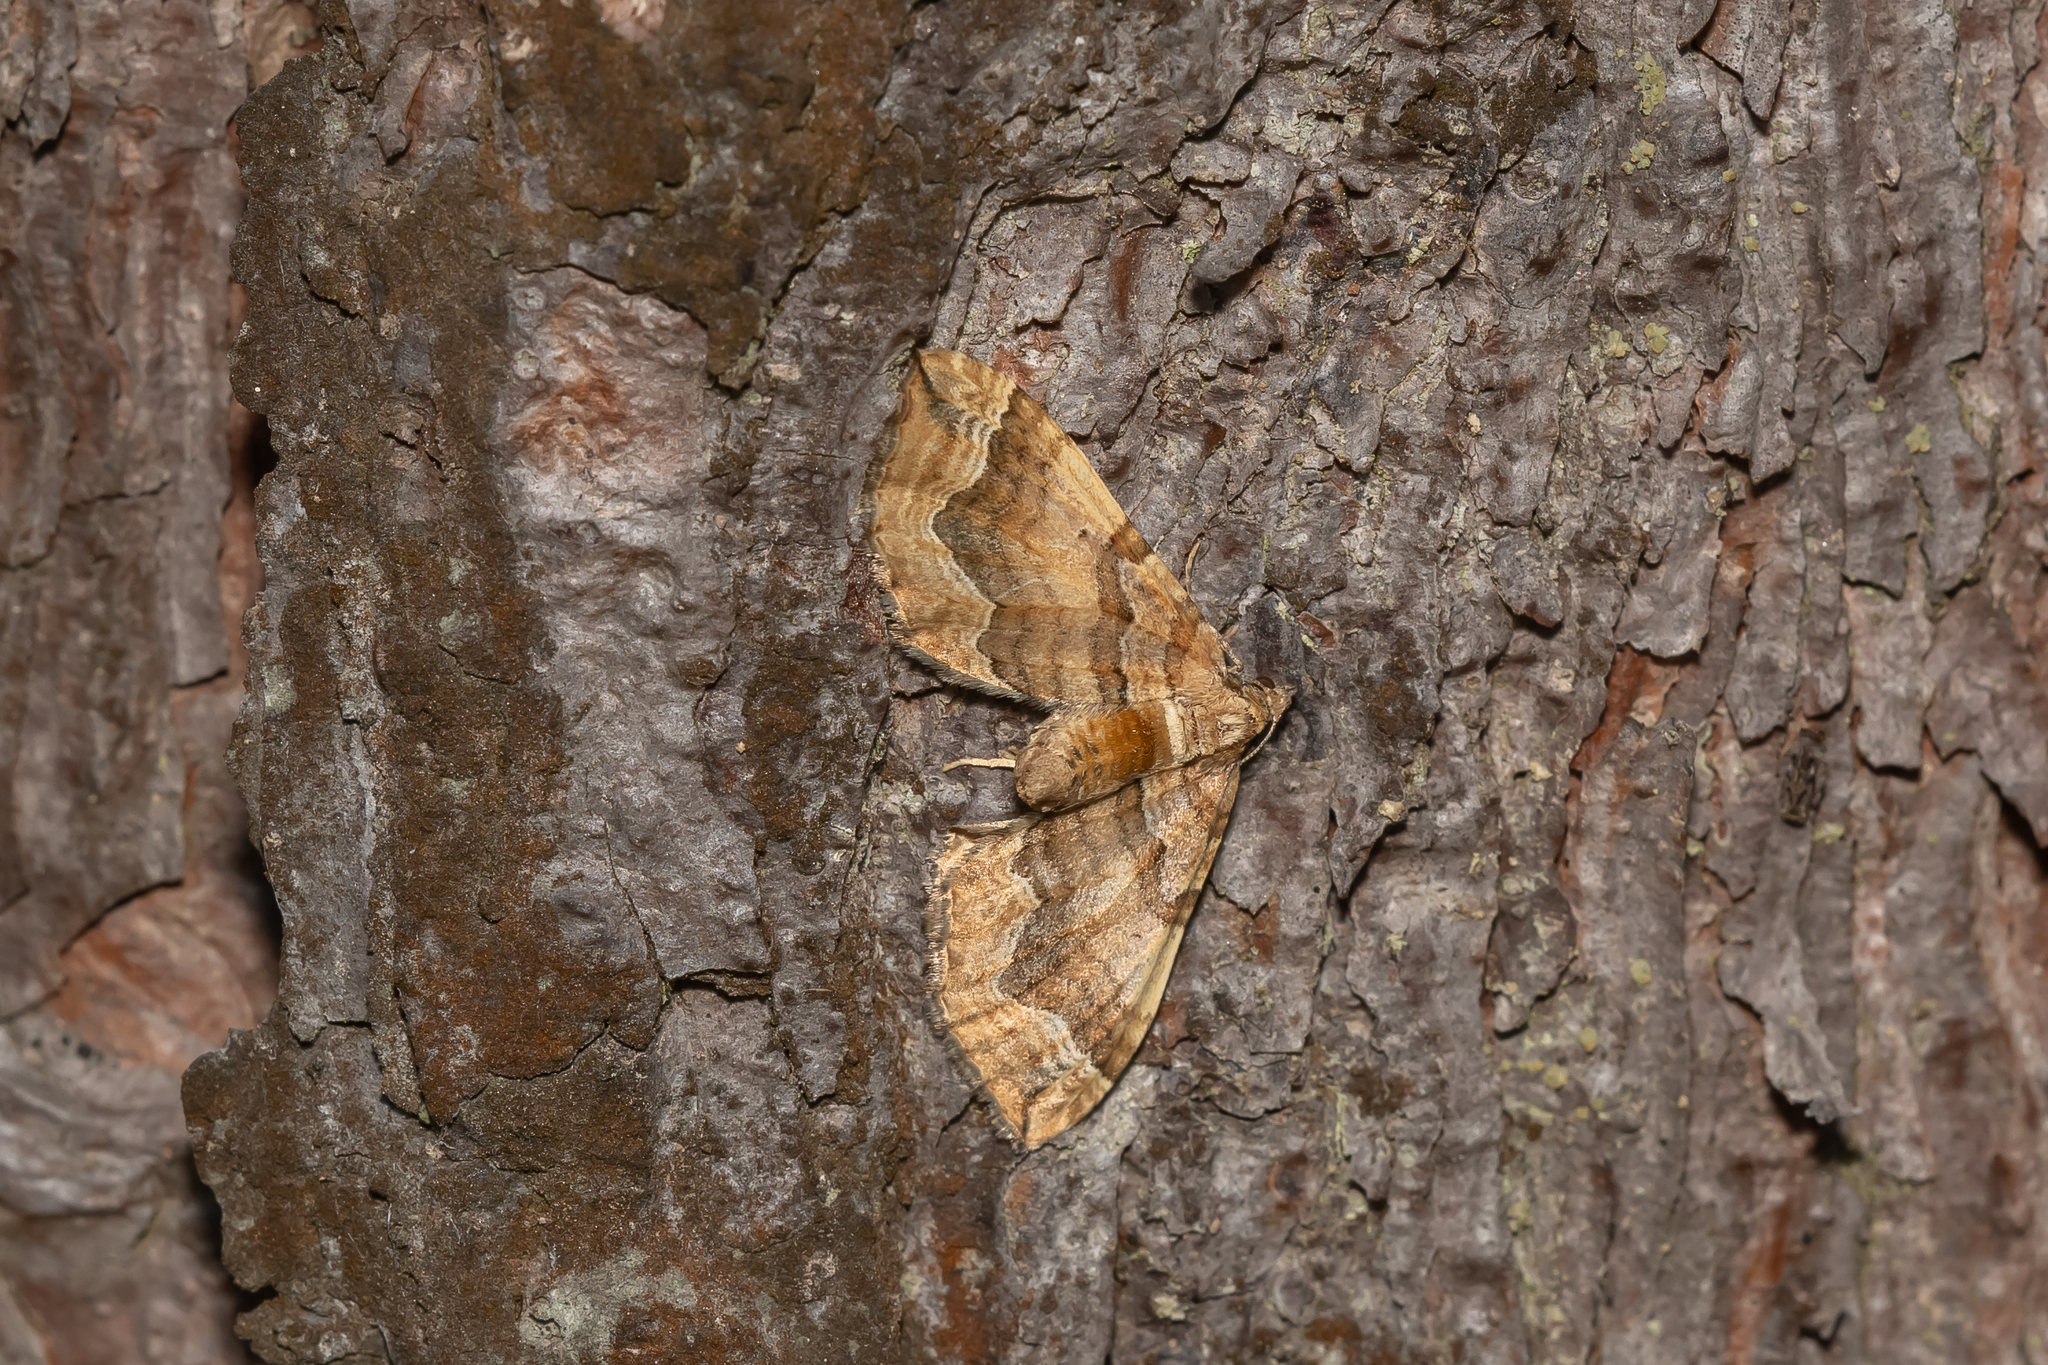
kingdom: Animalia
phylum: Arthropoda
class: Insecta
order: Lepidoptera
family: Geometridae
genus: Pelurga
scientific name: Pelurga comitata
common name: Dark spinach
